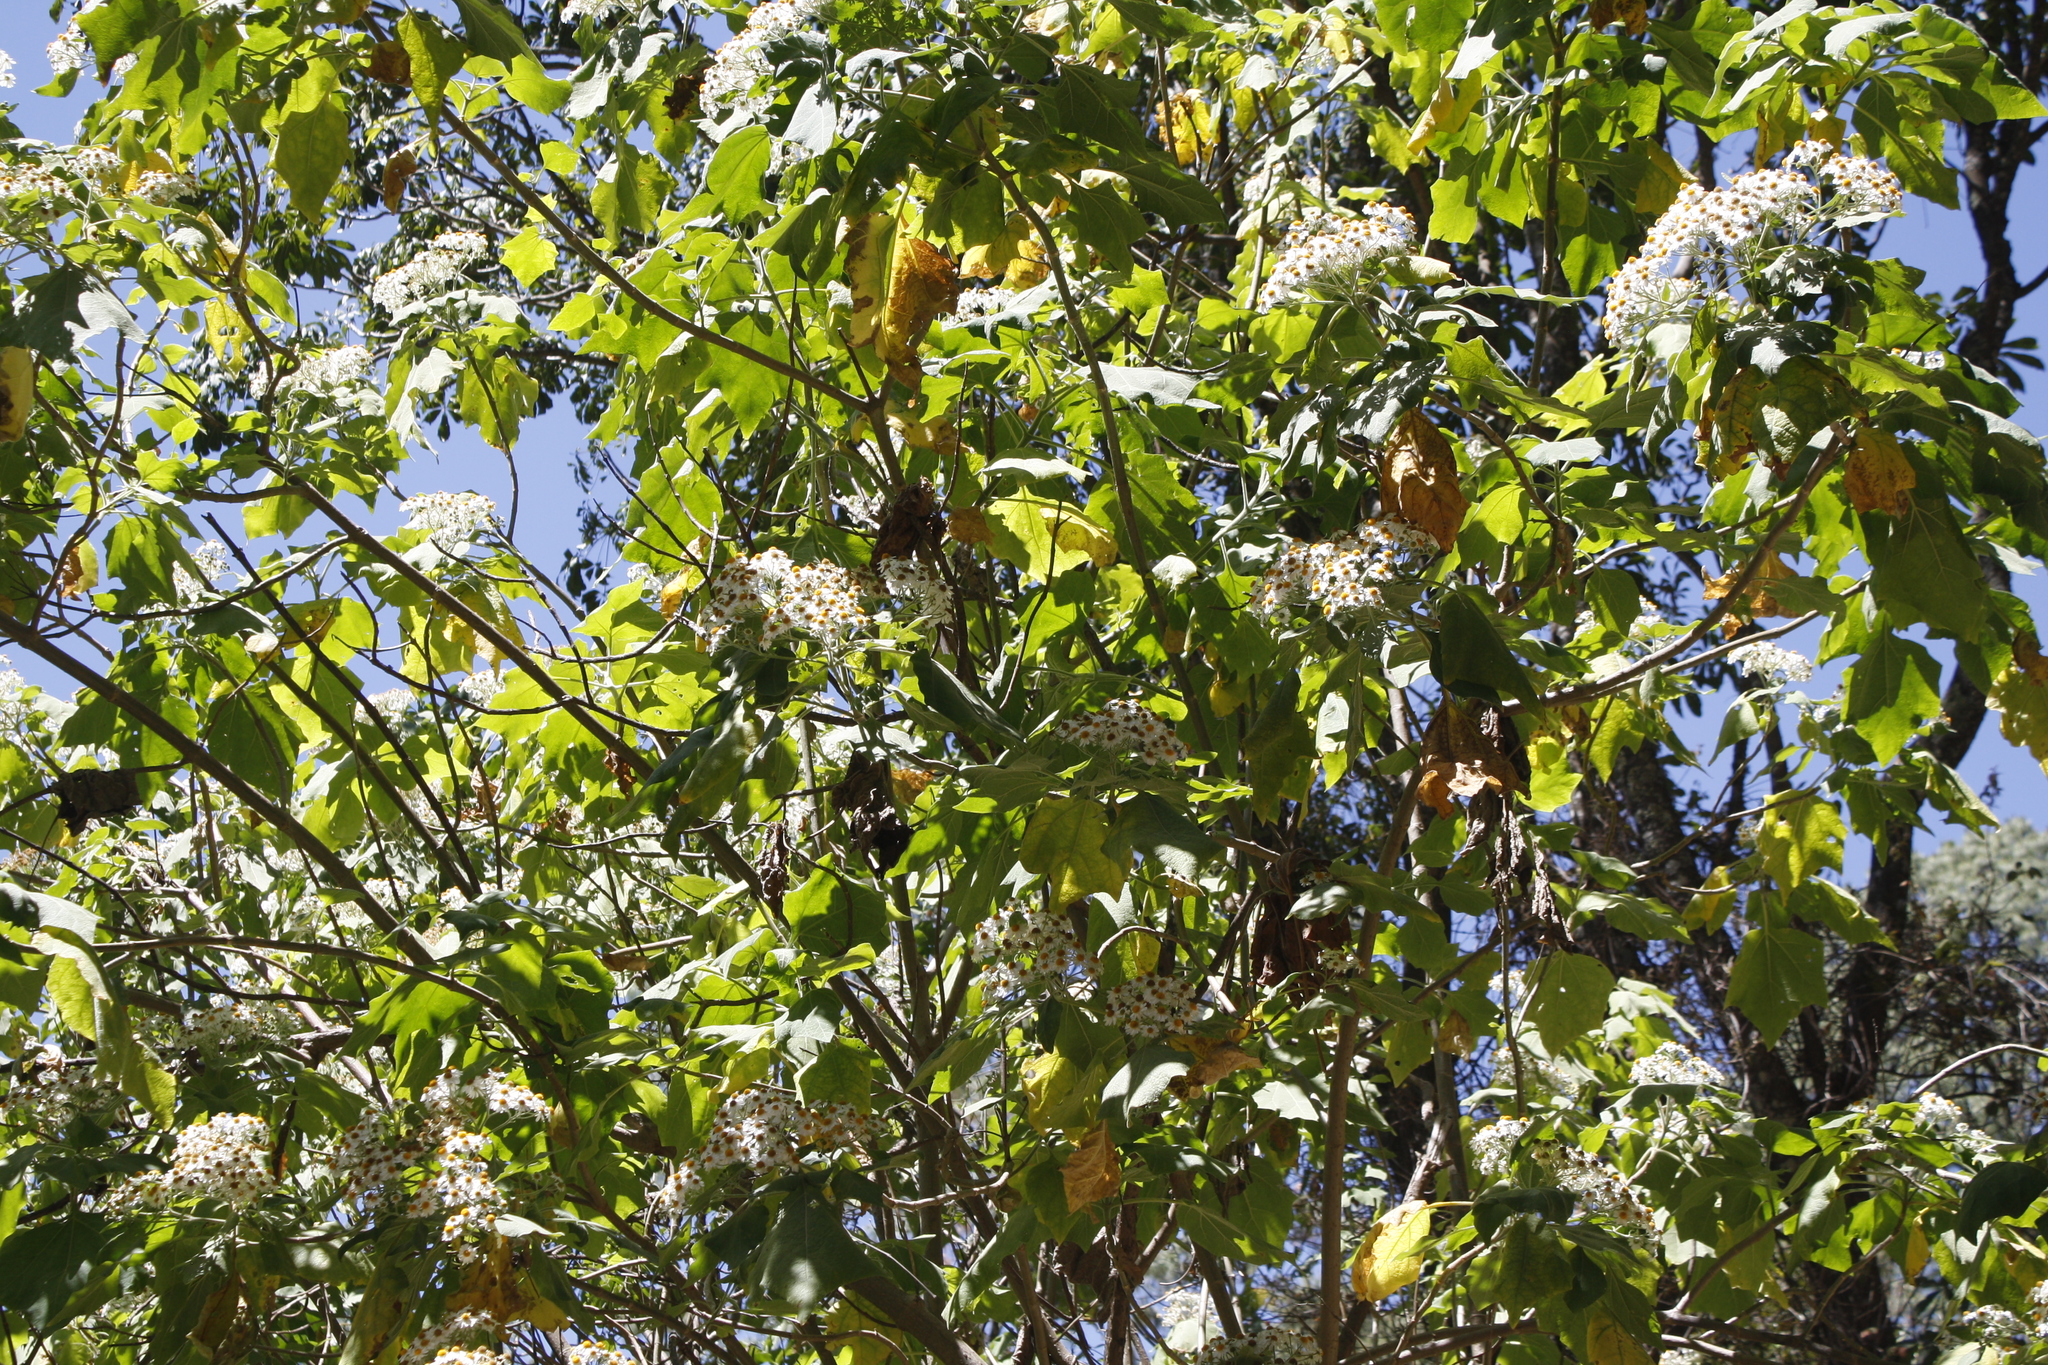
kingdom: Plantae
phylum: Tracheophyta
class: Magnoliopsida
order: Asterales
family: Asteraceae
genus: Podachaenium
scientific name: Podachaenium eminens
